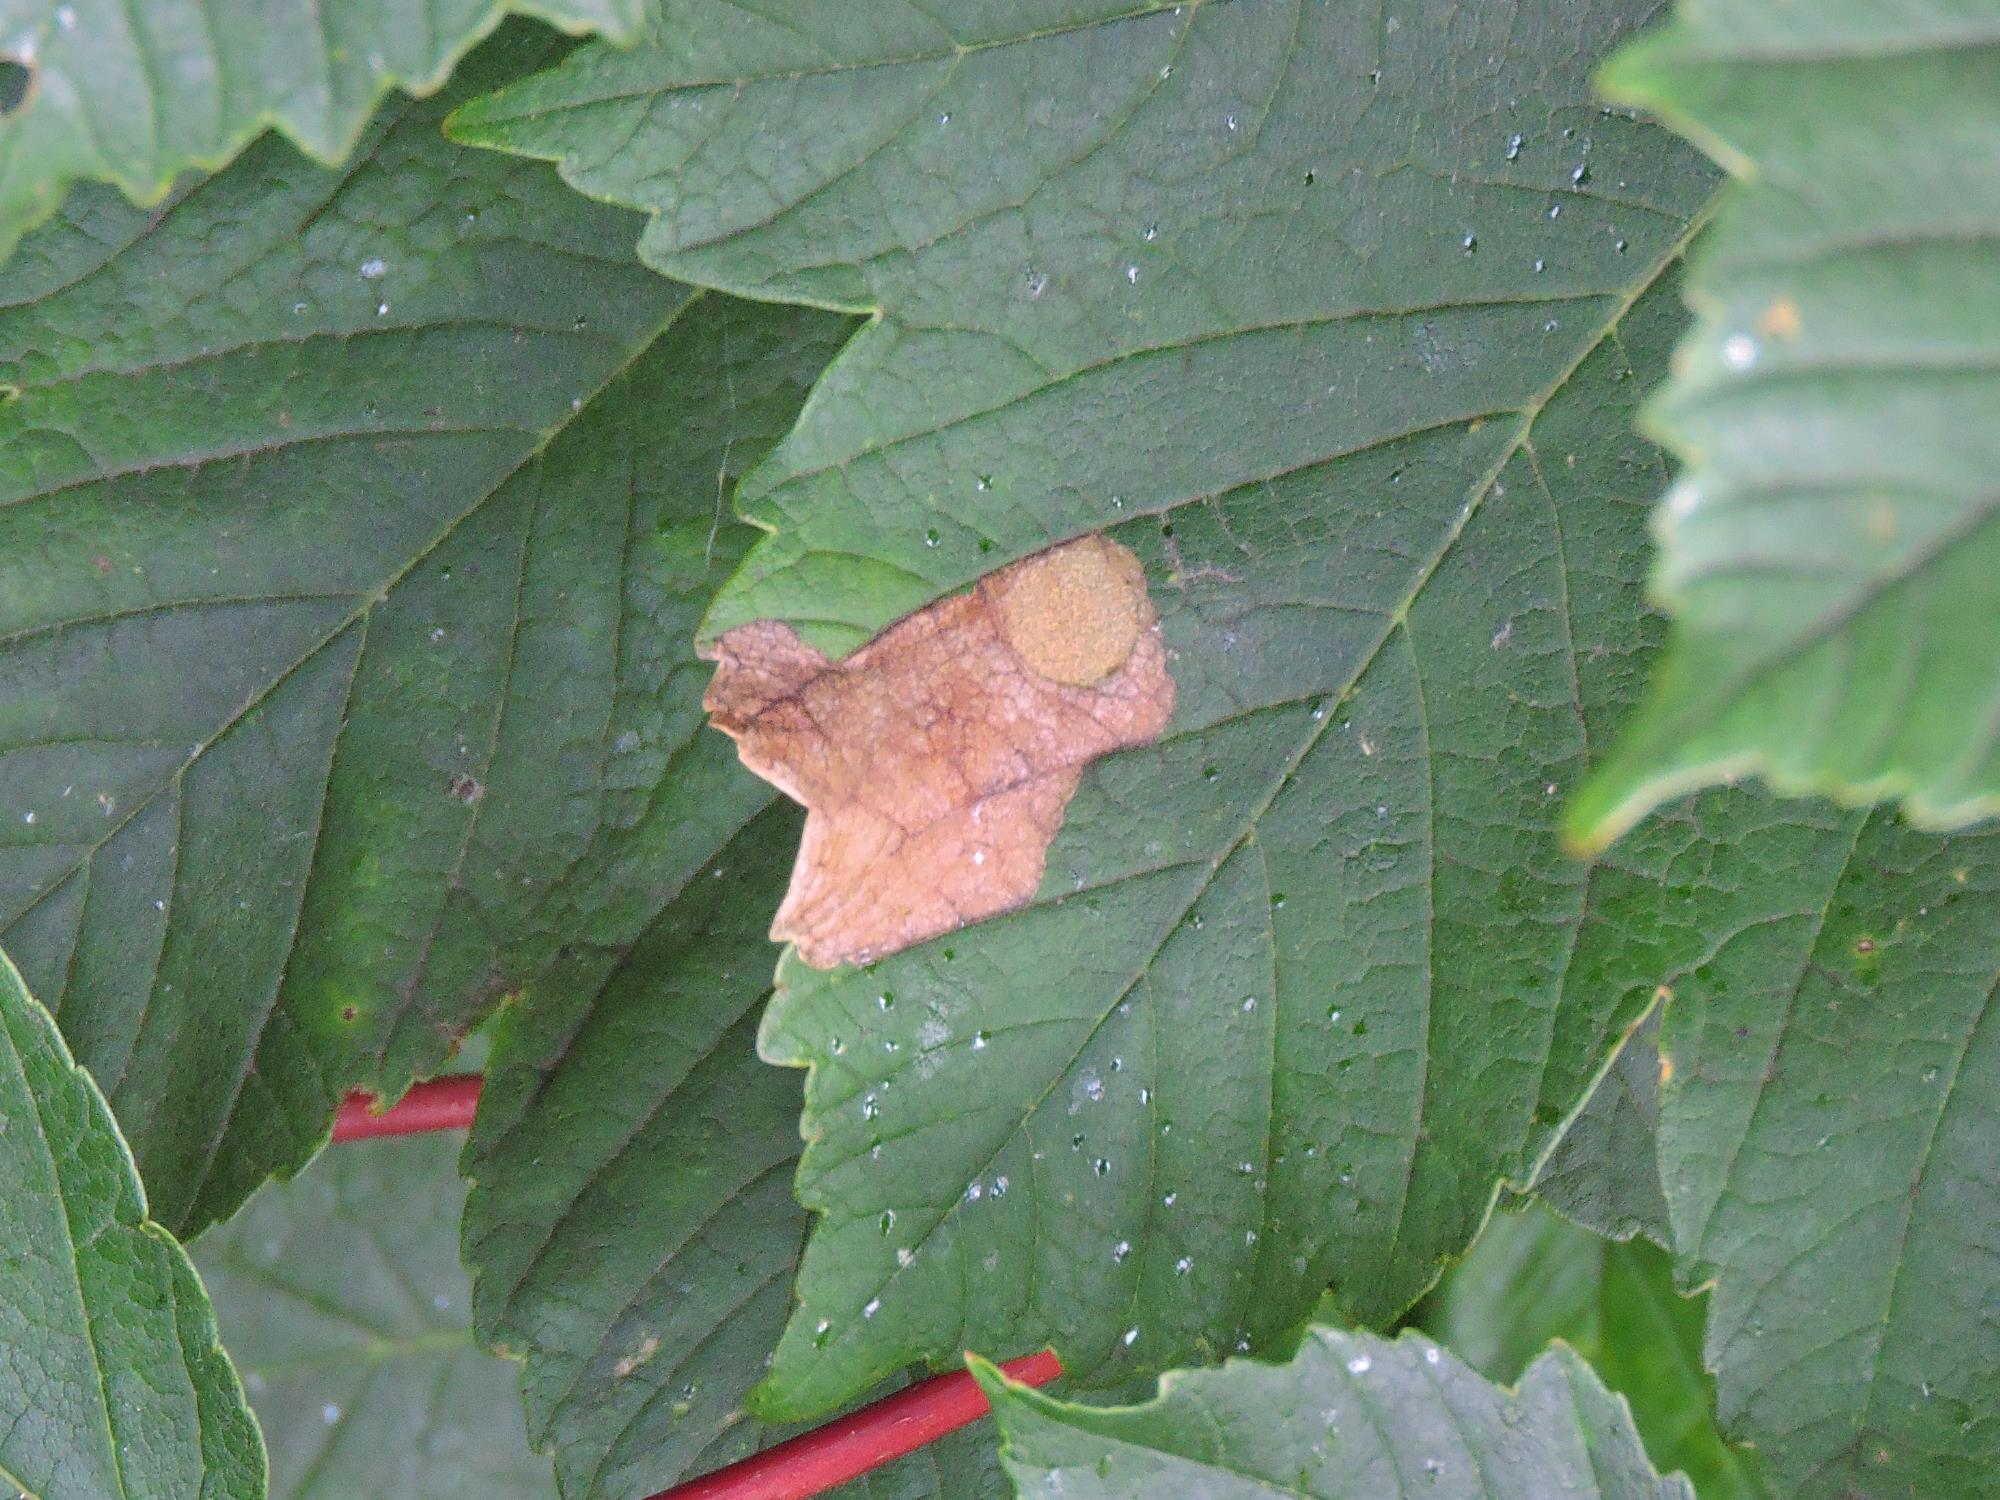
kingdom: Animalia
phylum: Arthropoda
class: Insecta
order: Hymenoptera
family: Tenthredinidae
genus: Heterarthrus
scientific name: Heterarthrus fiora
